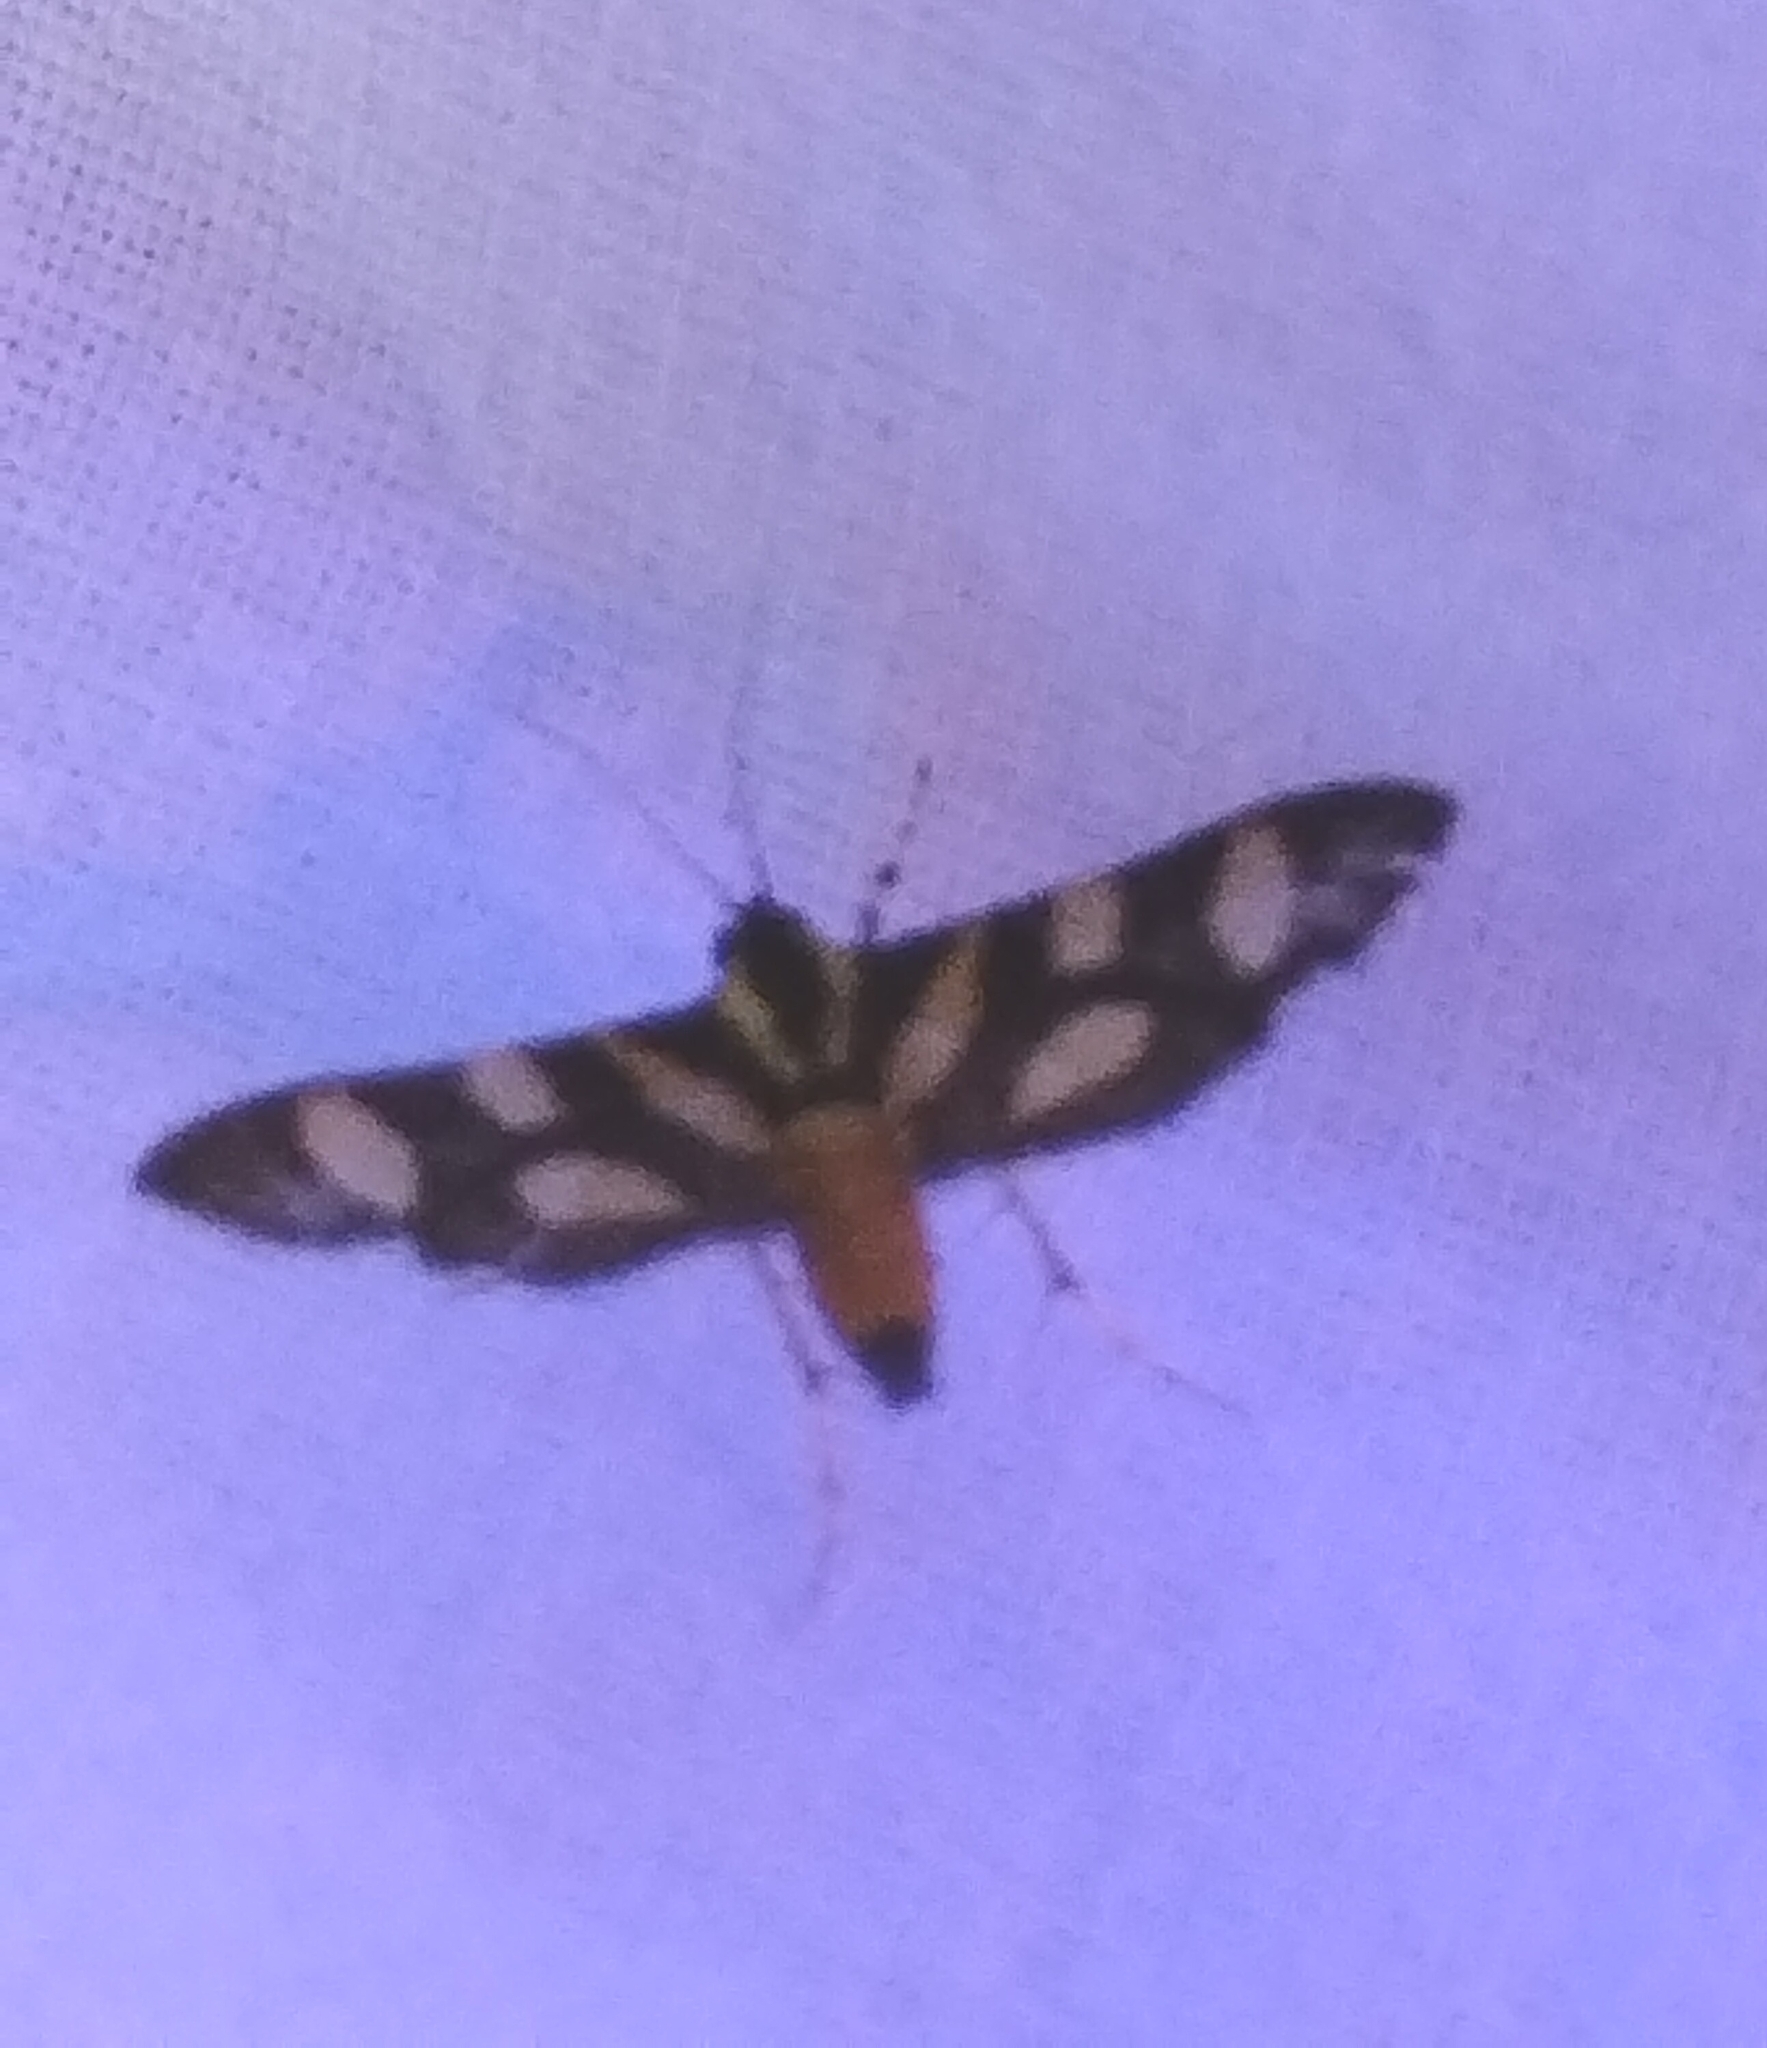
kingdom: Animalia
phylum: Arthropoda
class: Insecta
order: Lepidoptera
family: Crambidae
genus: Syngamia
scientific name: Syngamia florella
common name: Orange-spotted flower moth
